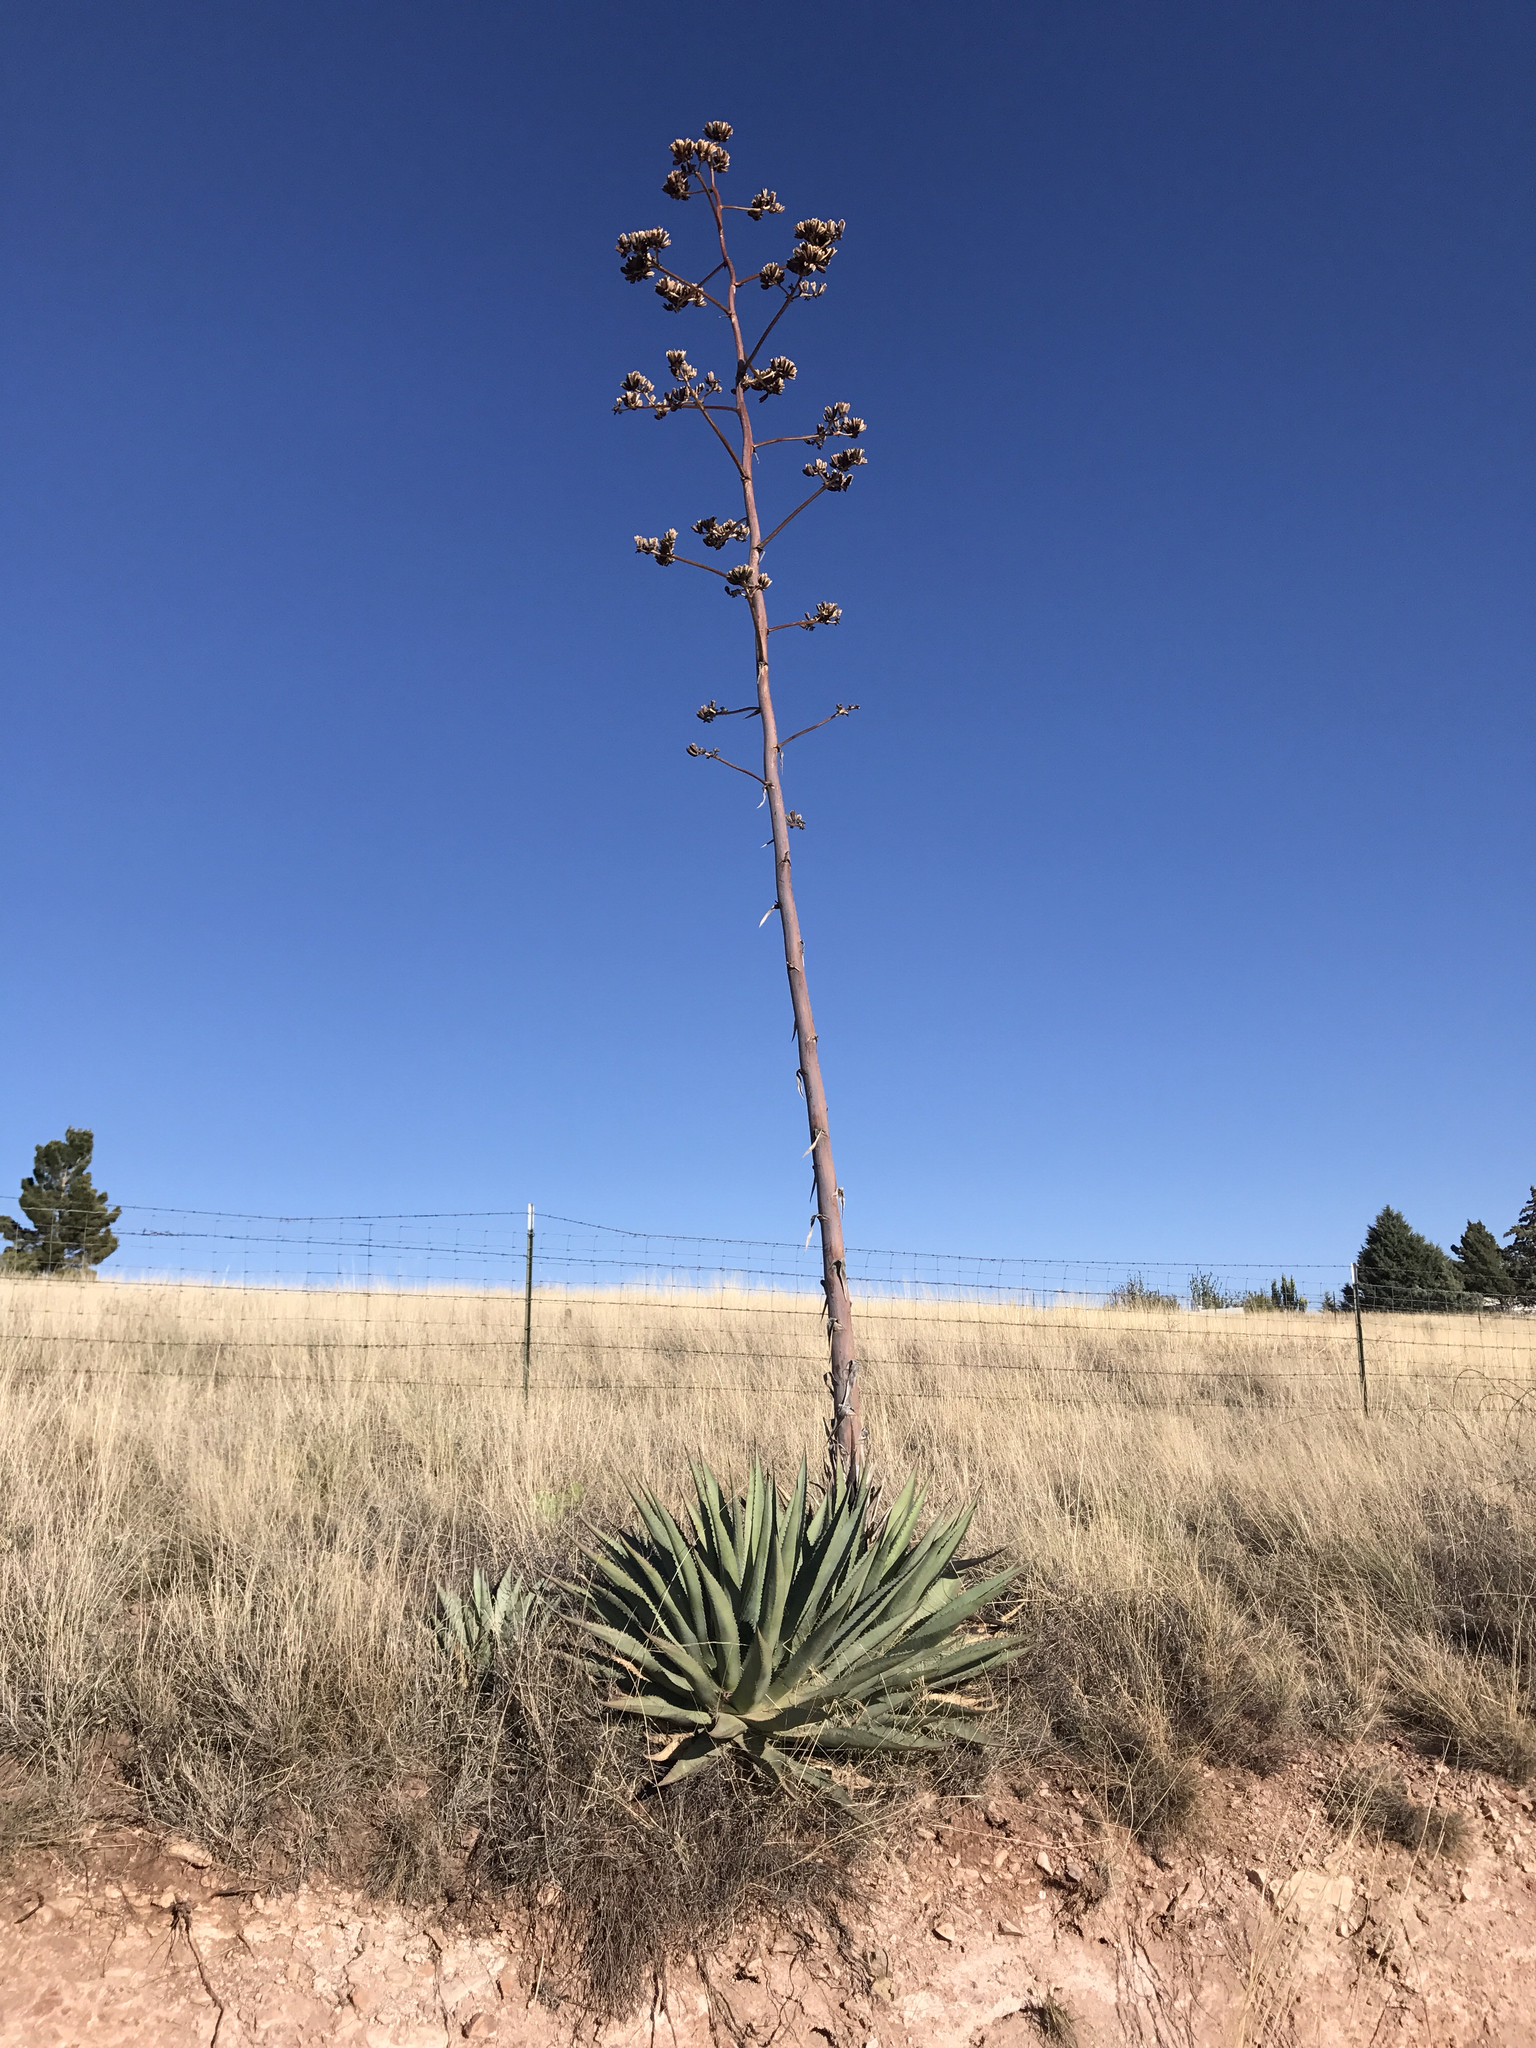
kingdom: Plantae
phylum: Tracheophyta
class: Liliopsida
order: Asparagales
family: Asparagaceae
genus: Agave
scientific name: Agave palmeri
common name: Palmer agave
